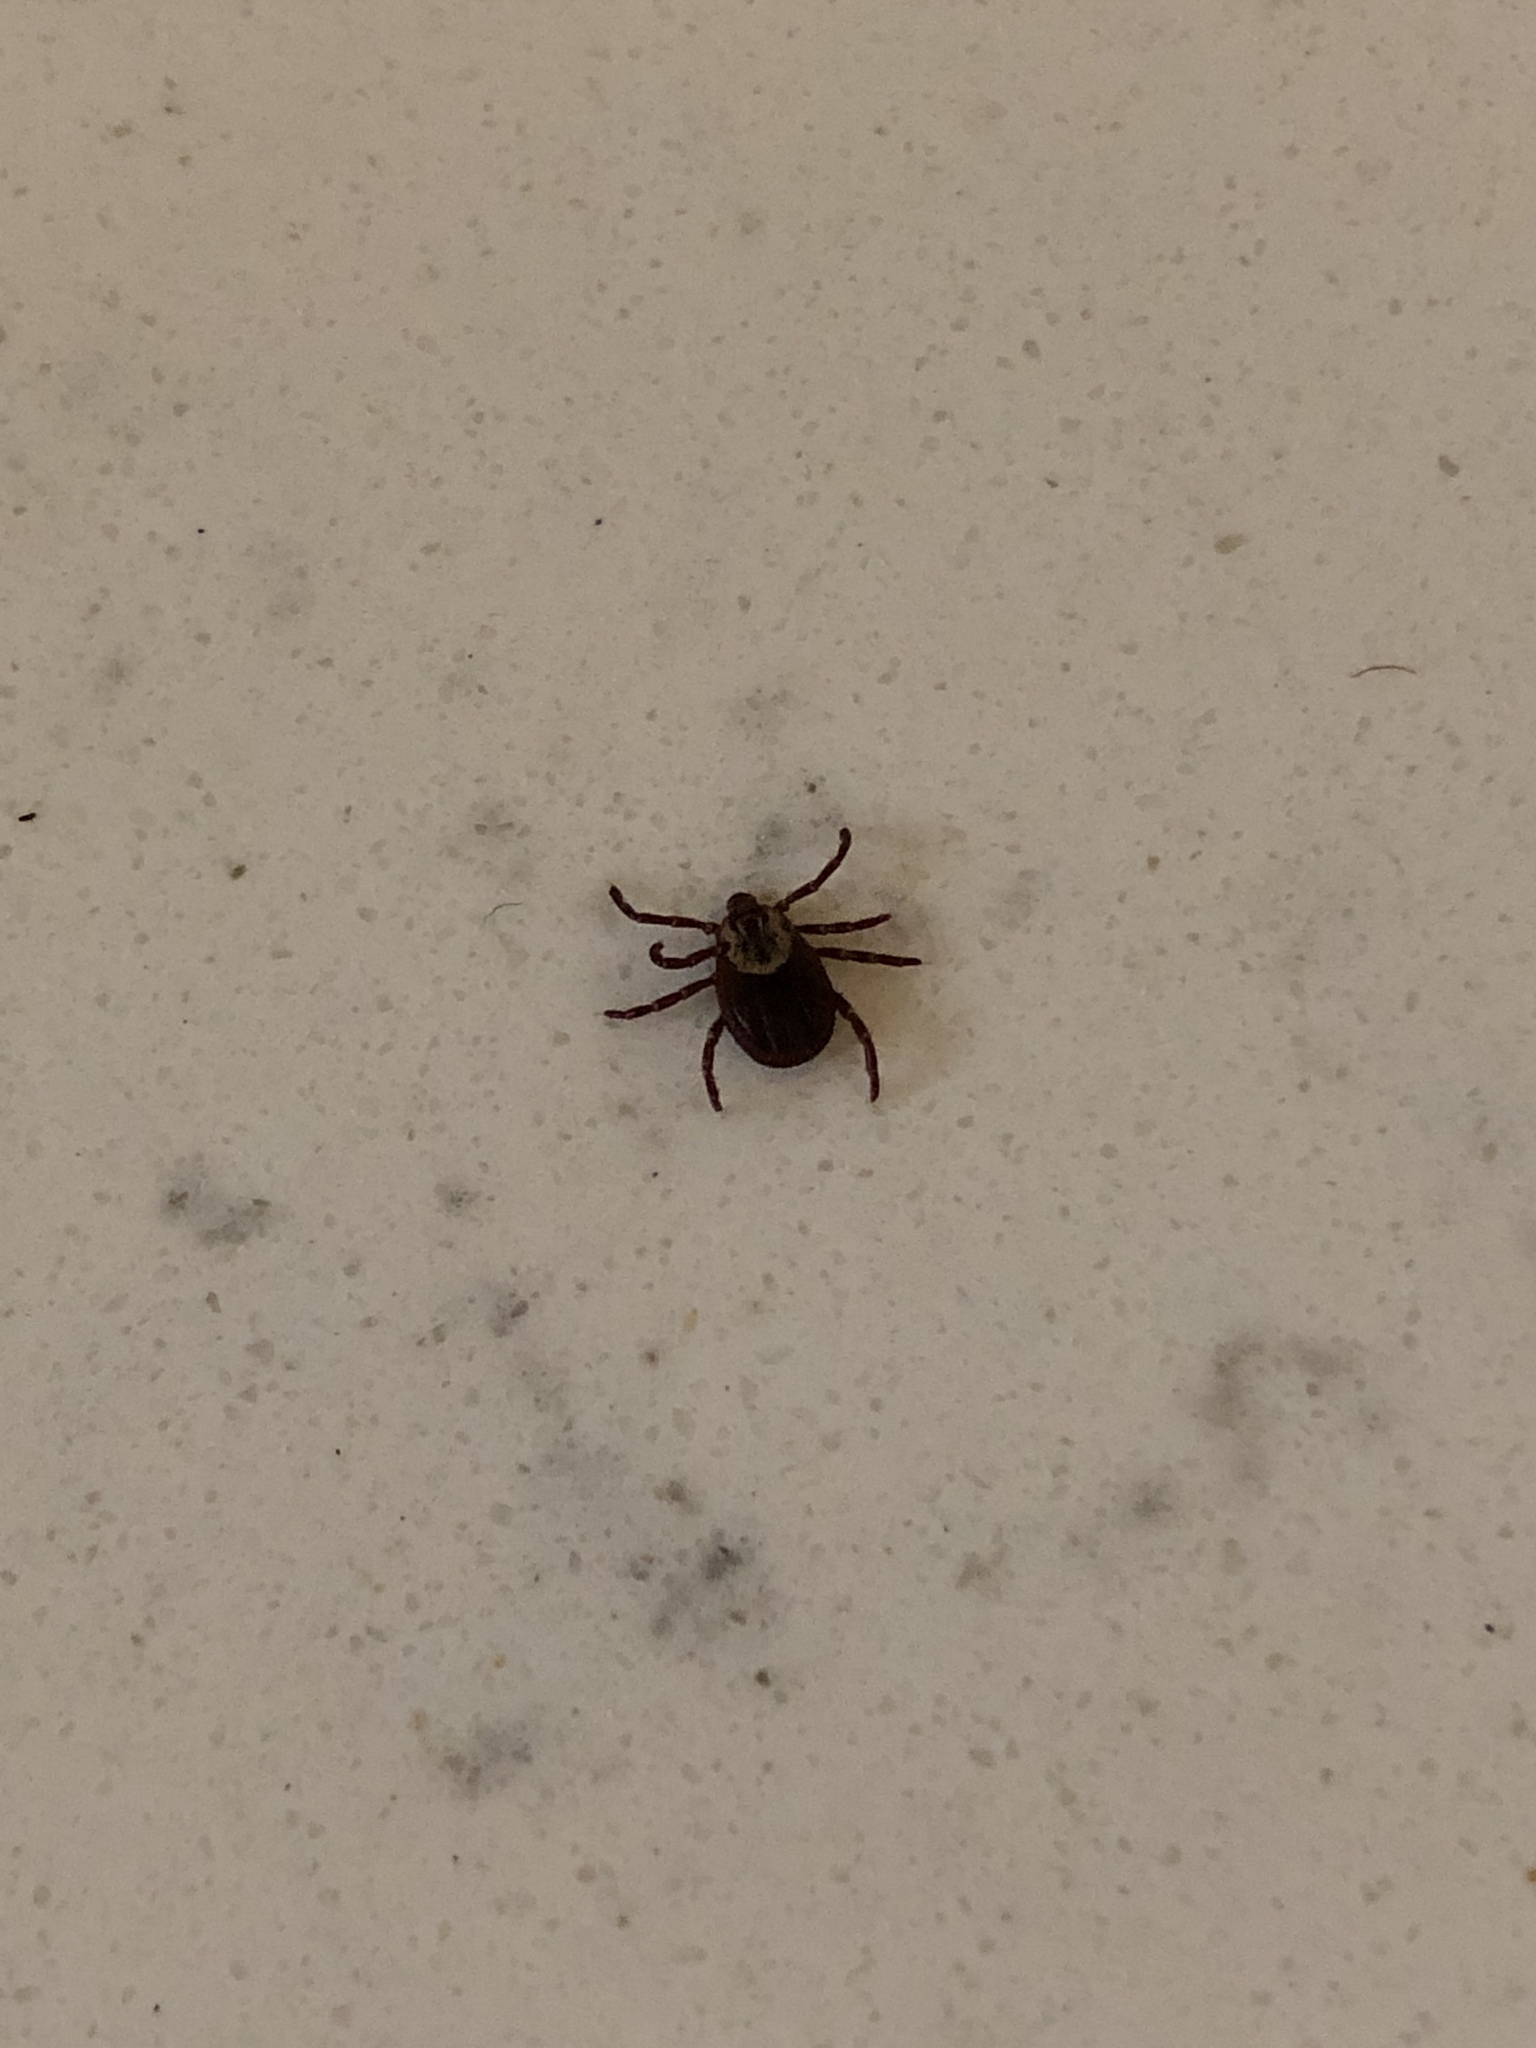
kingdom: Animalia
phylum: Arthropoda
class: Arachnida
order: Ixodida
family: Ixodidae
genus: Dermacentor
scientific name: Dermacentor variabilis
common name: American dog tick
